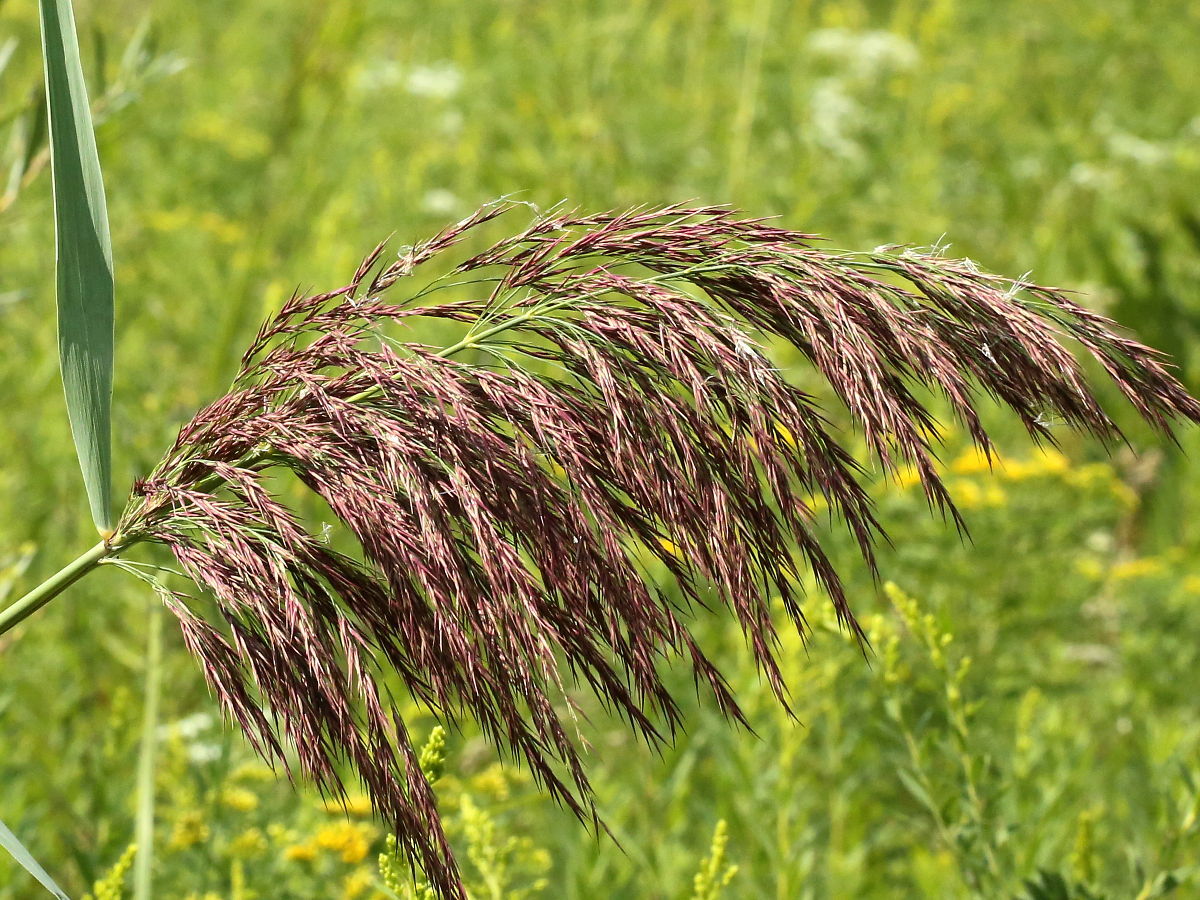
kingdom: Plantae
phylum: Tracheophyta
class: Liliopsida
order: Poales
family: Poaceae
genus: Phragmites
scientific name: Phragmites australis
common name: Common reed
